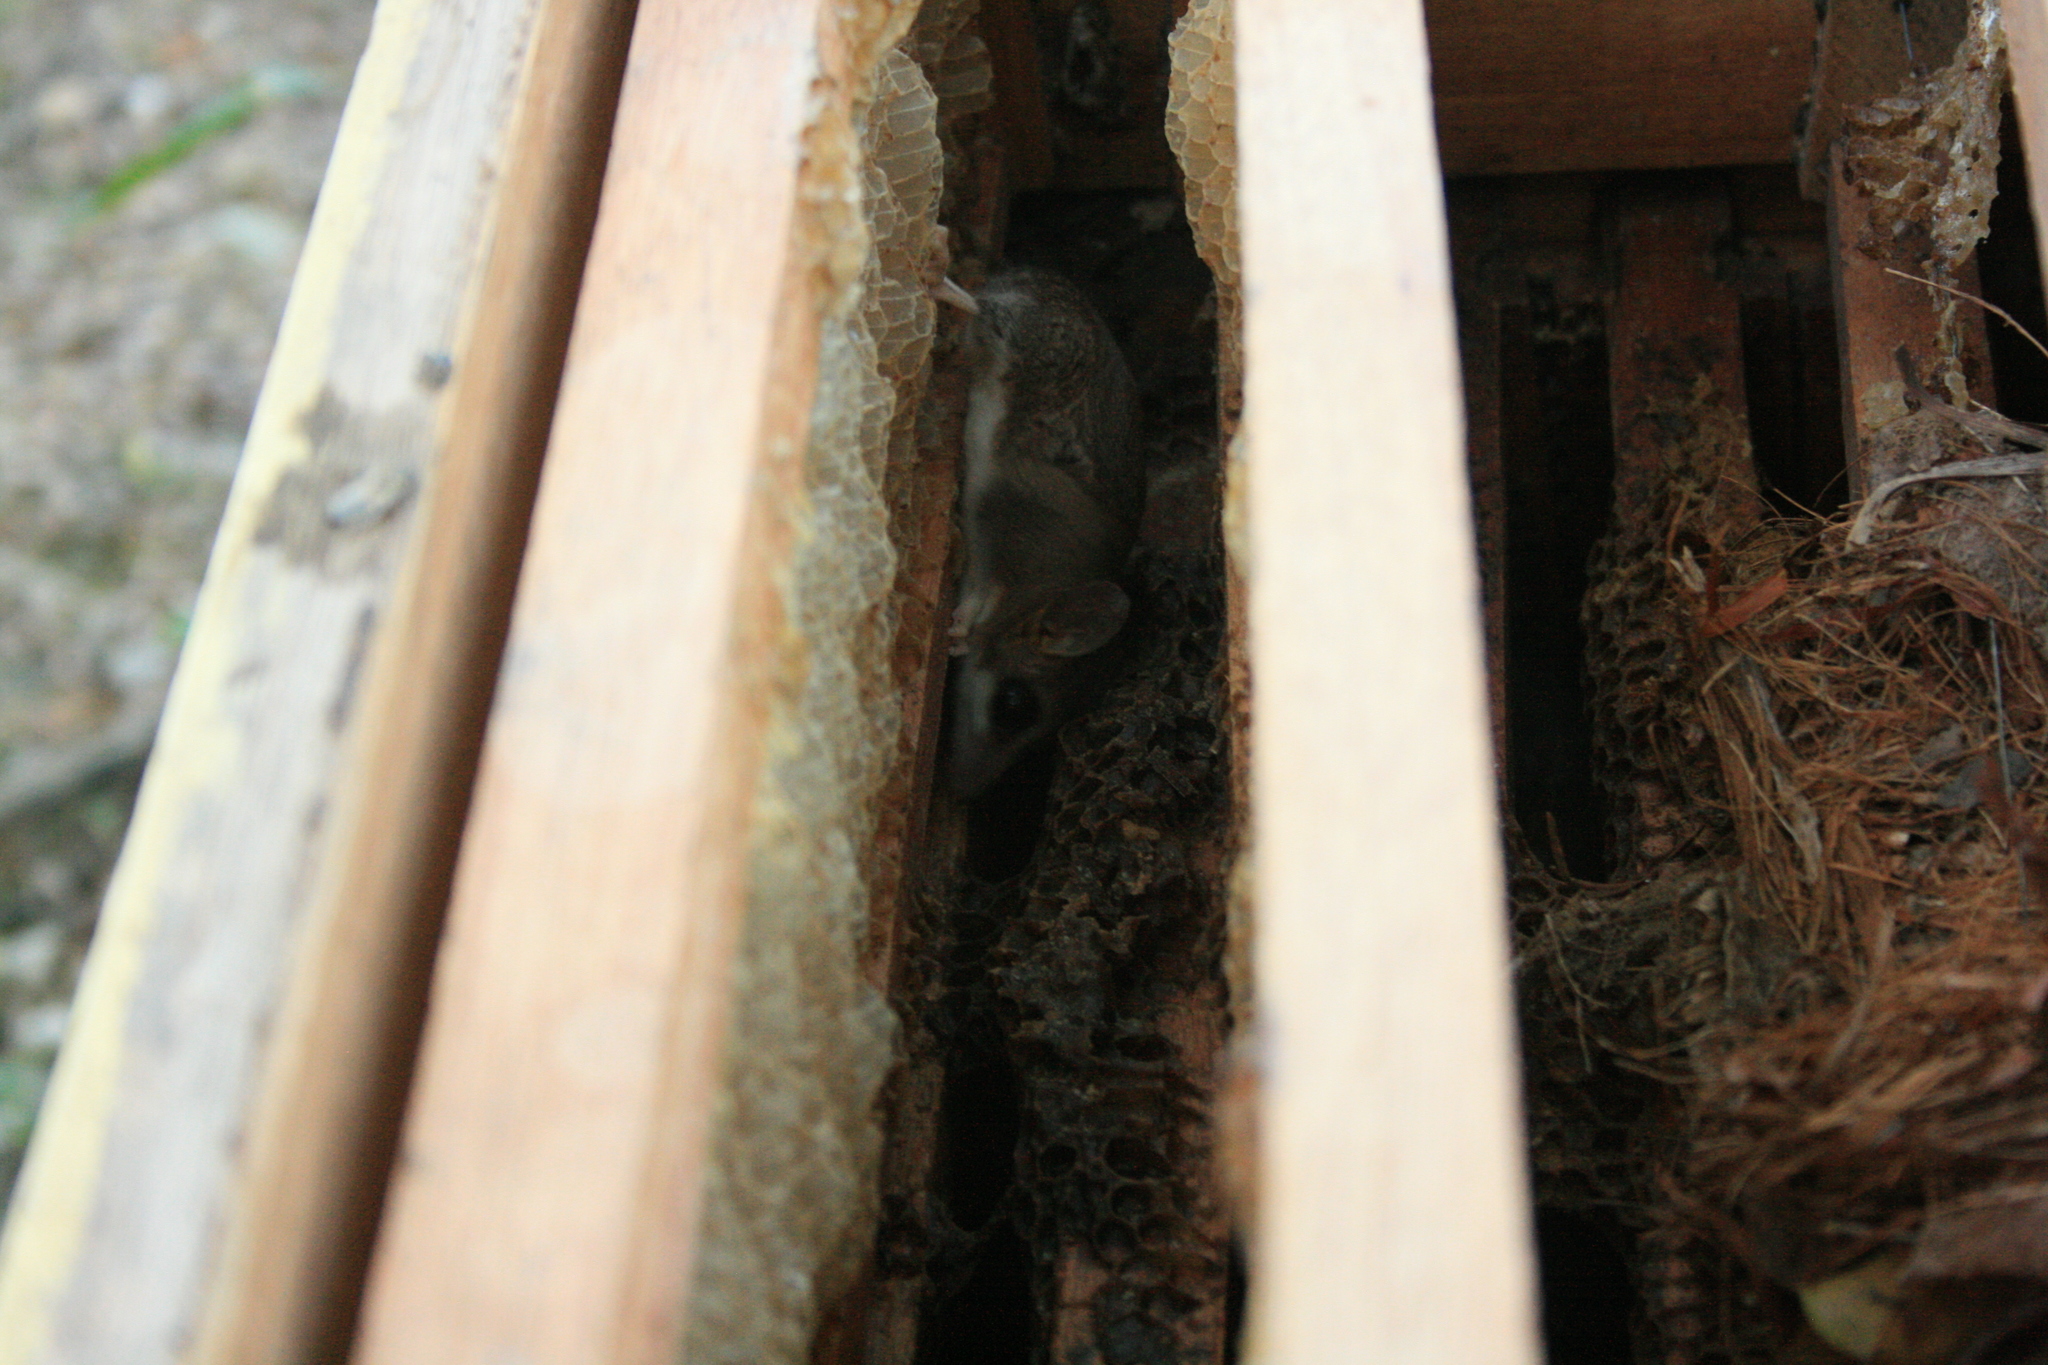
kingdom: Animalia
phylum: Chordata
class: Mammalia
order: Didelphimorphia
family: Didelphidae
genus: Thylamys
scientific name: Thylamys pusillus
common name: Common fat-tailed mouse opossum
